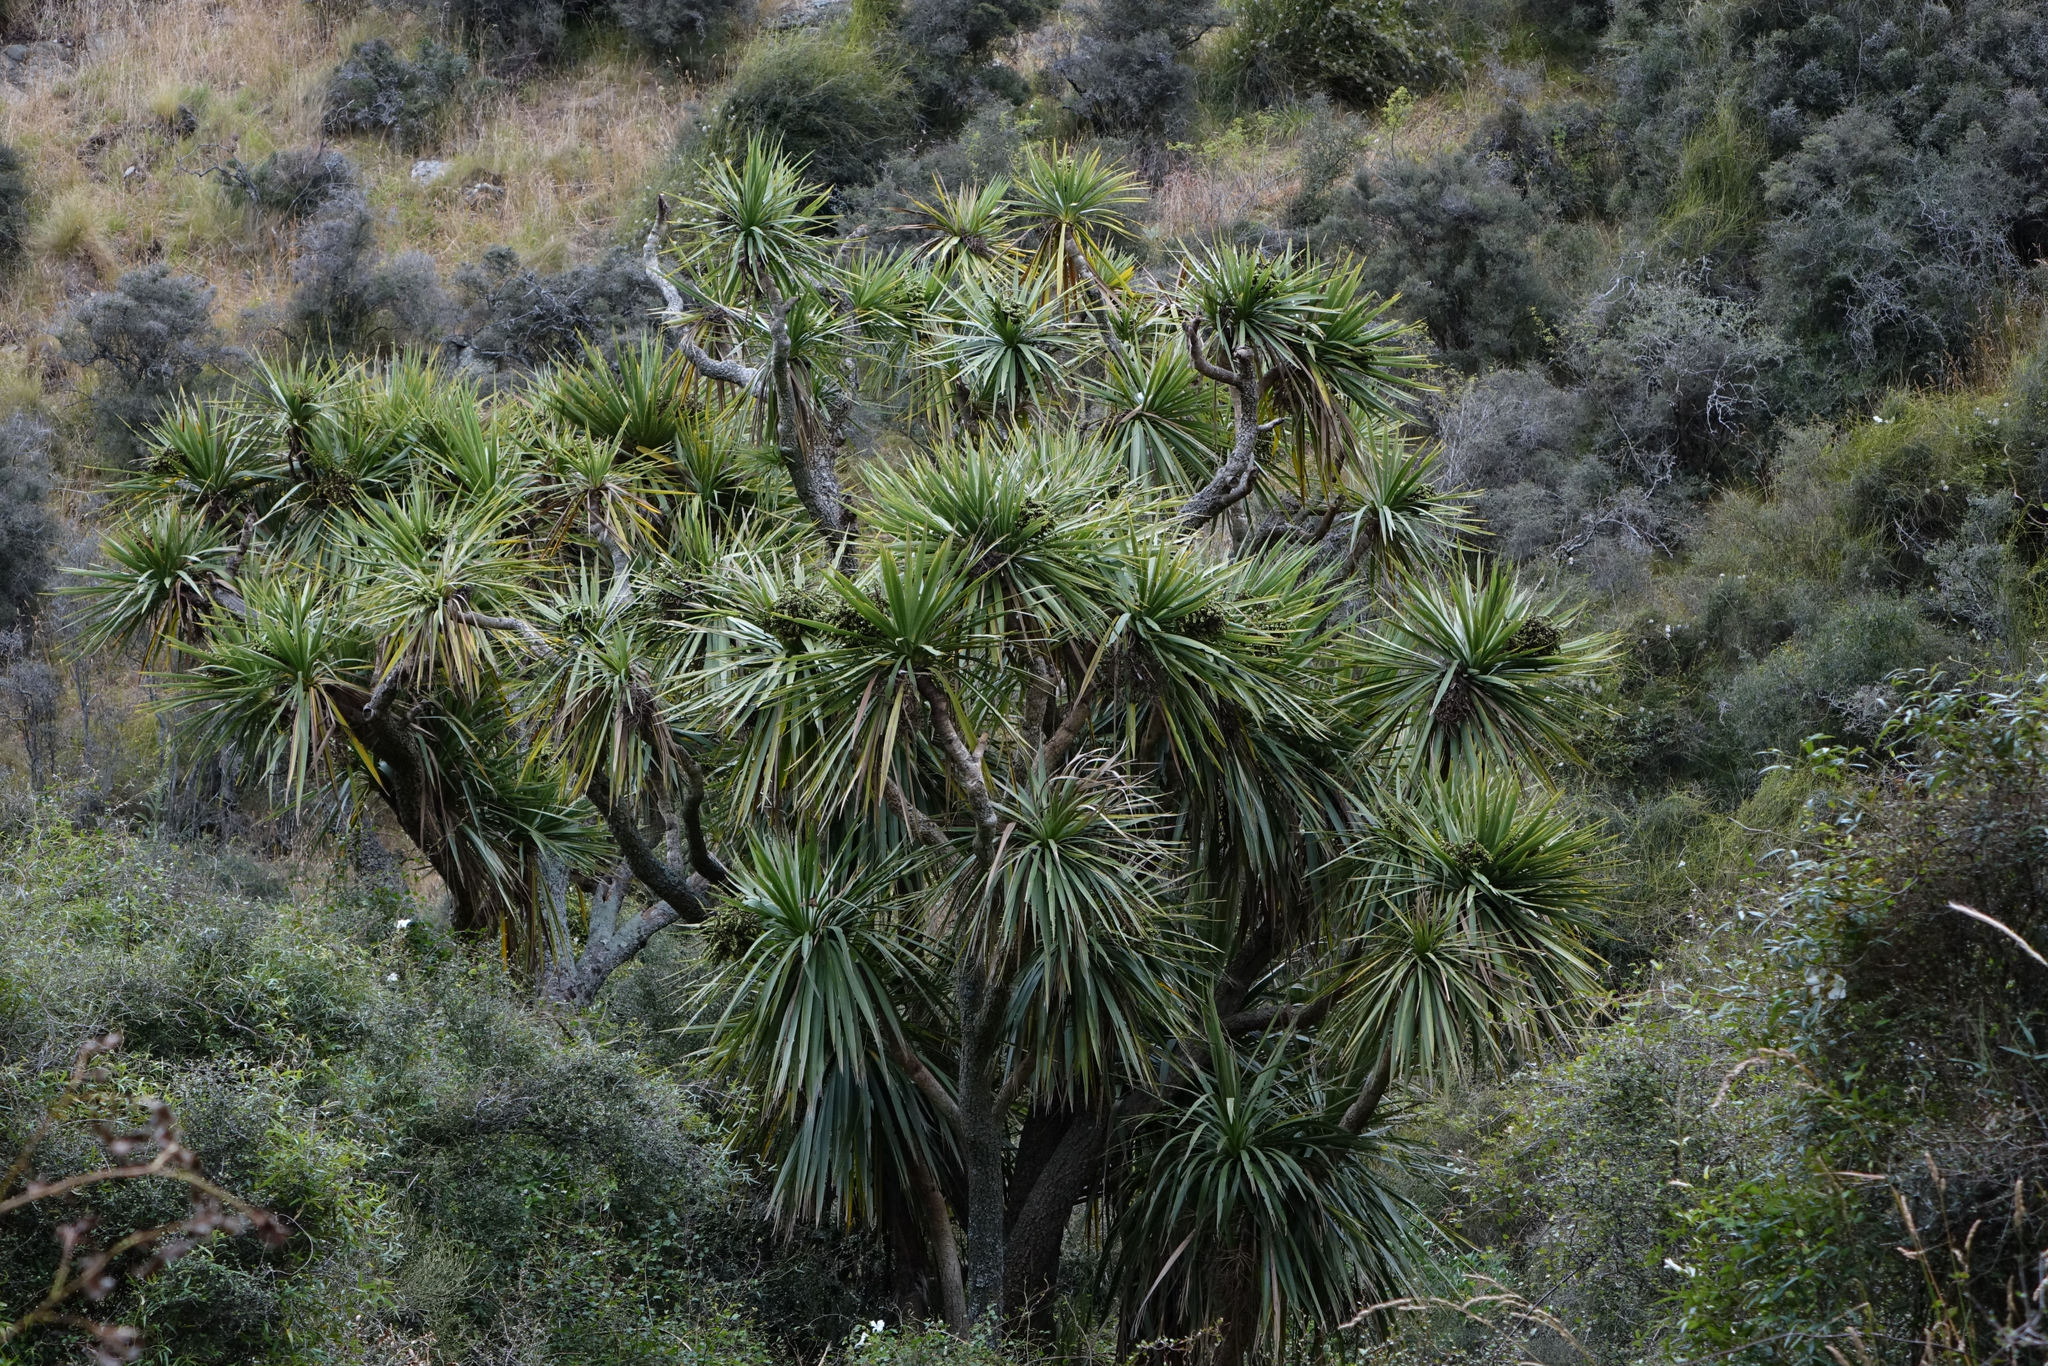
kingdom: Plantae
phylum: Tracheophyta
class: Liliopsida
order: Asparagales
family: Asparagaceae
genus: Cordyline
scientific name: Cordyline australis
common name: Cabbage-palm
